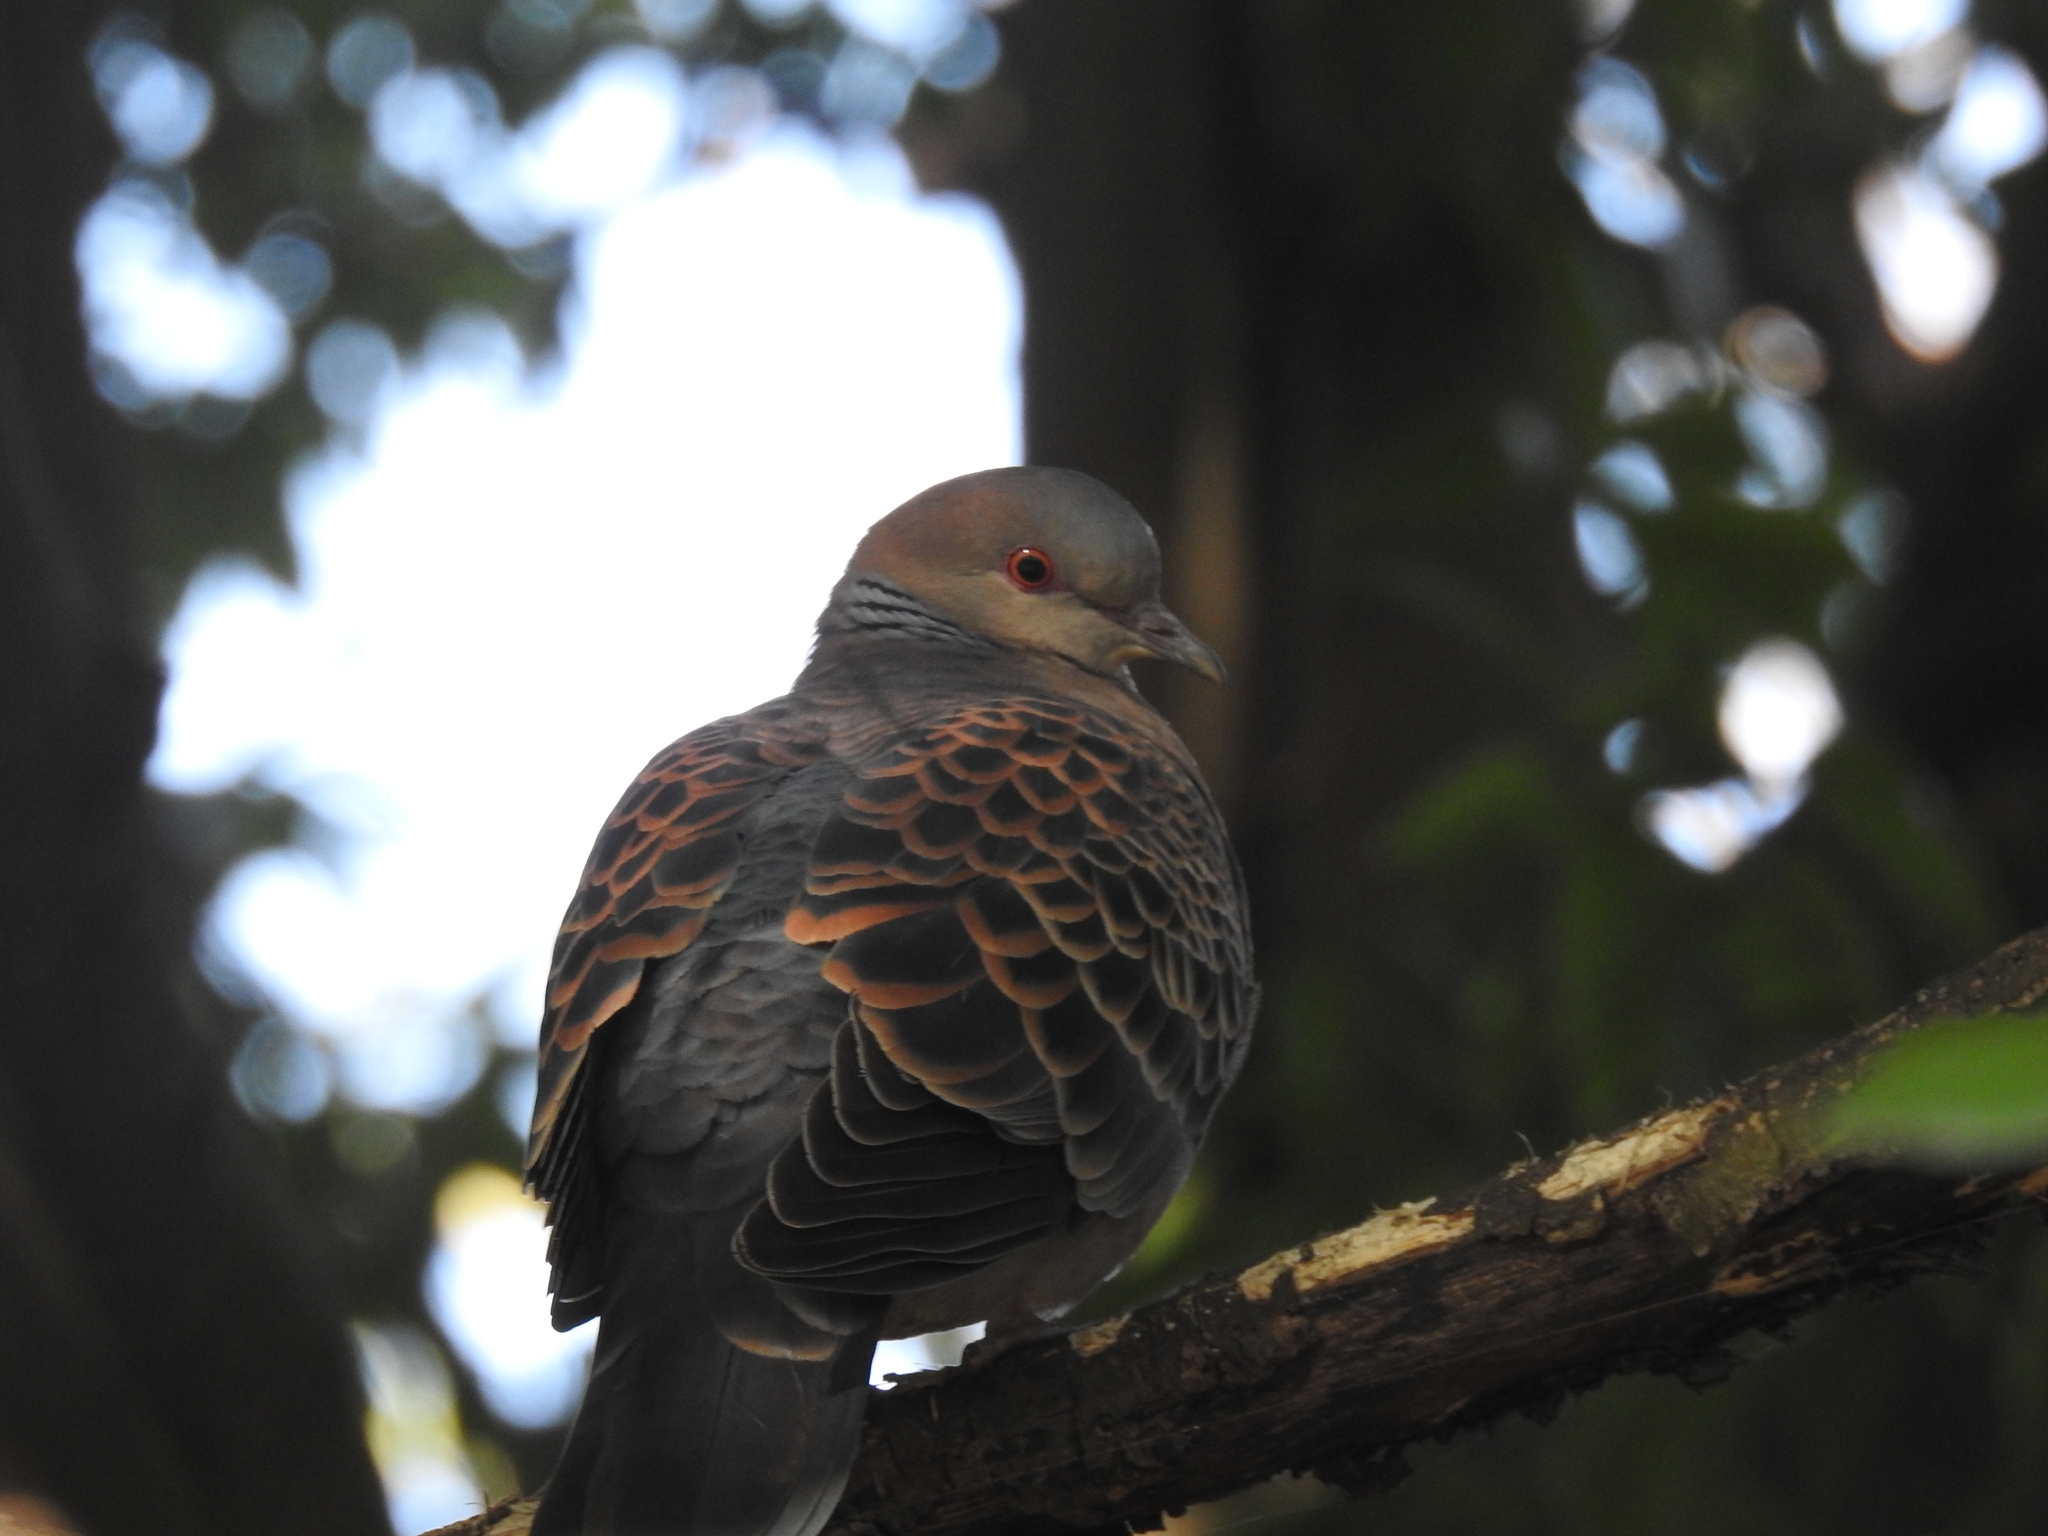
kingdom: Animalia
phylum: Chordata
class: Aves
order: Columbiformes
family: Columbidae
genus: Streptopelia
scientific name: Streptopelia orientalis
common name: Oriental turtle dove
